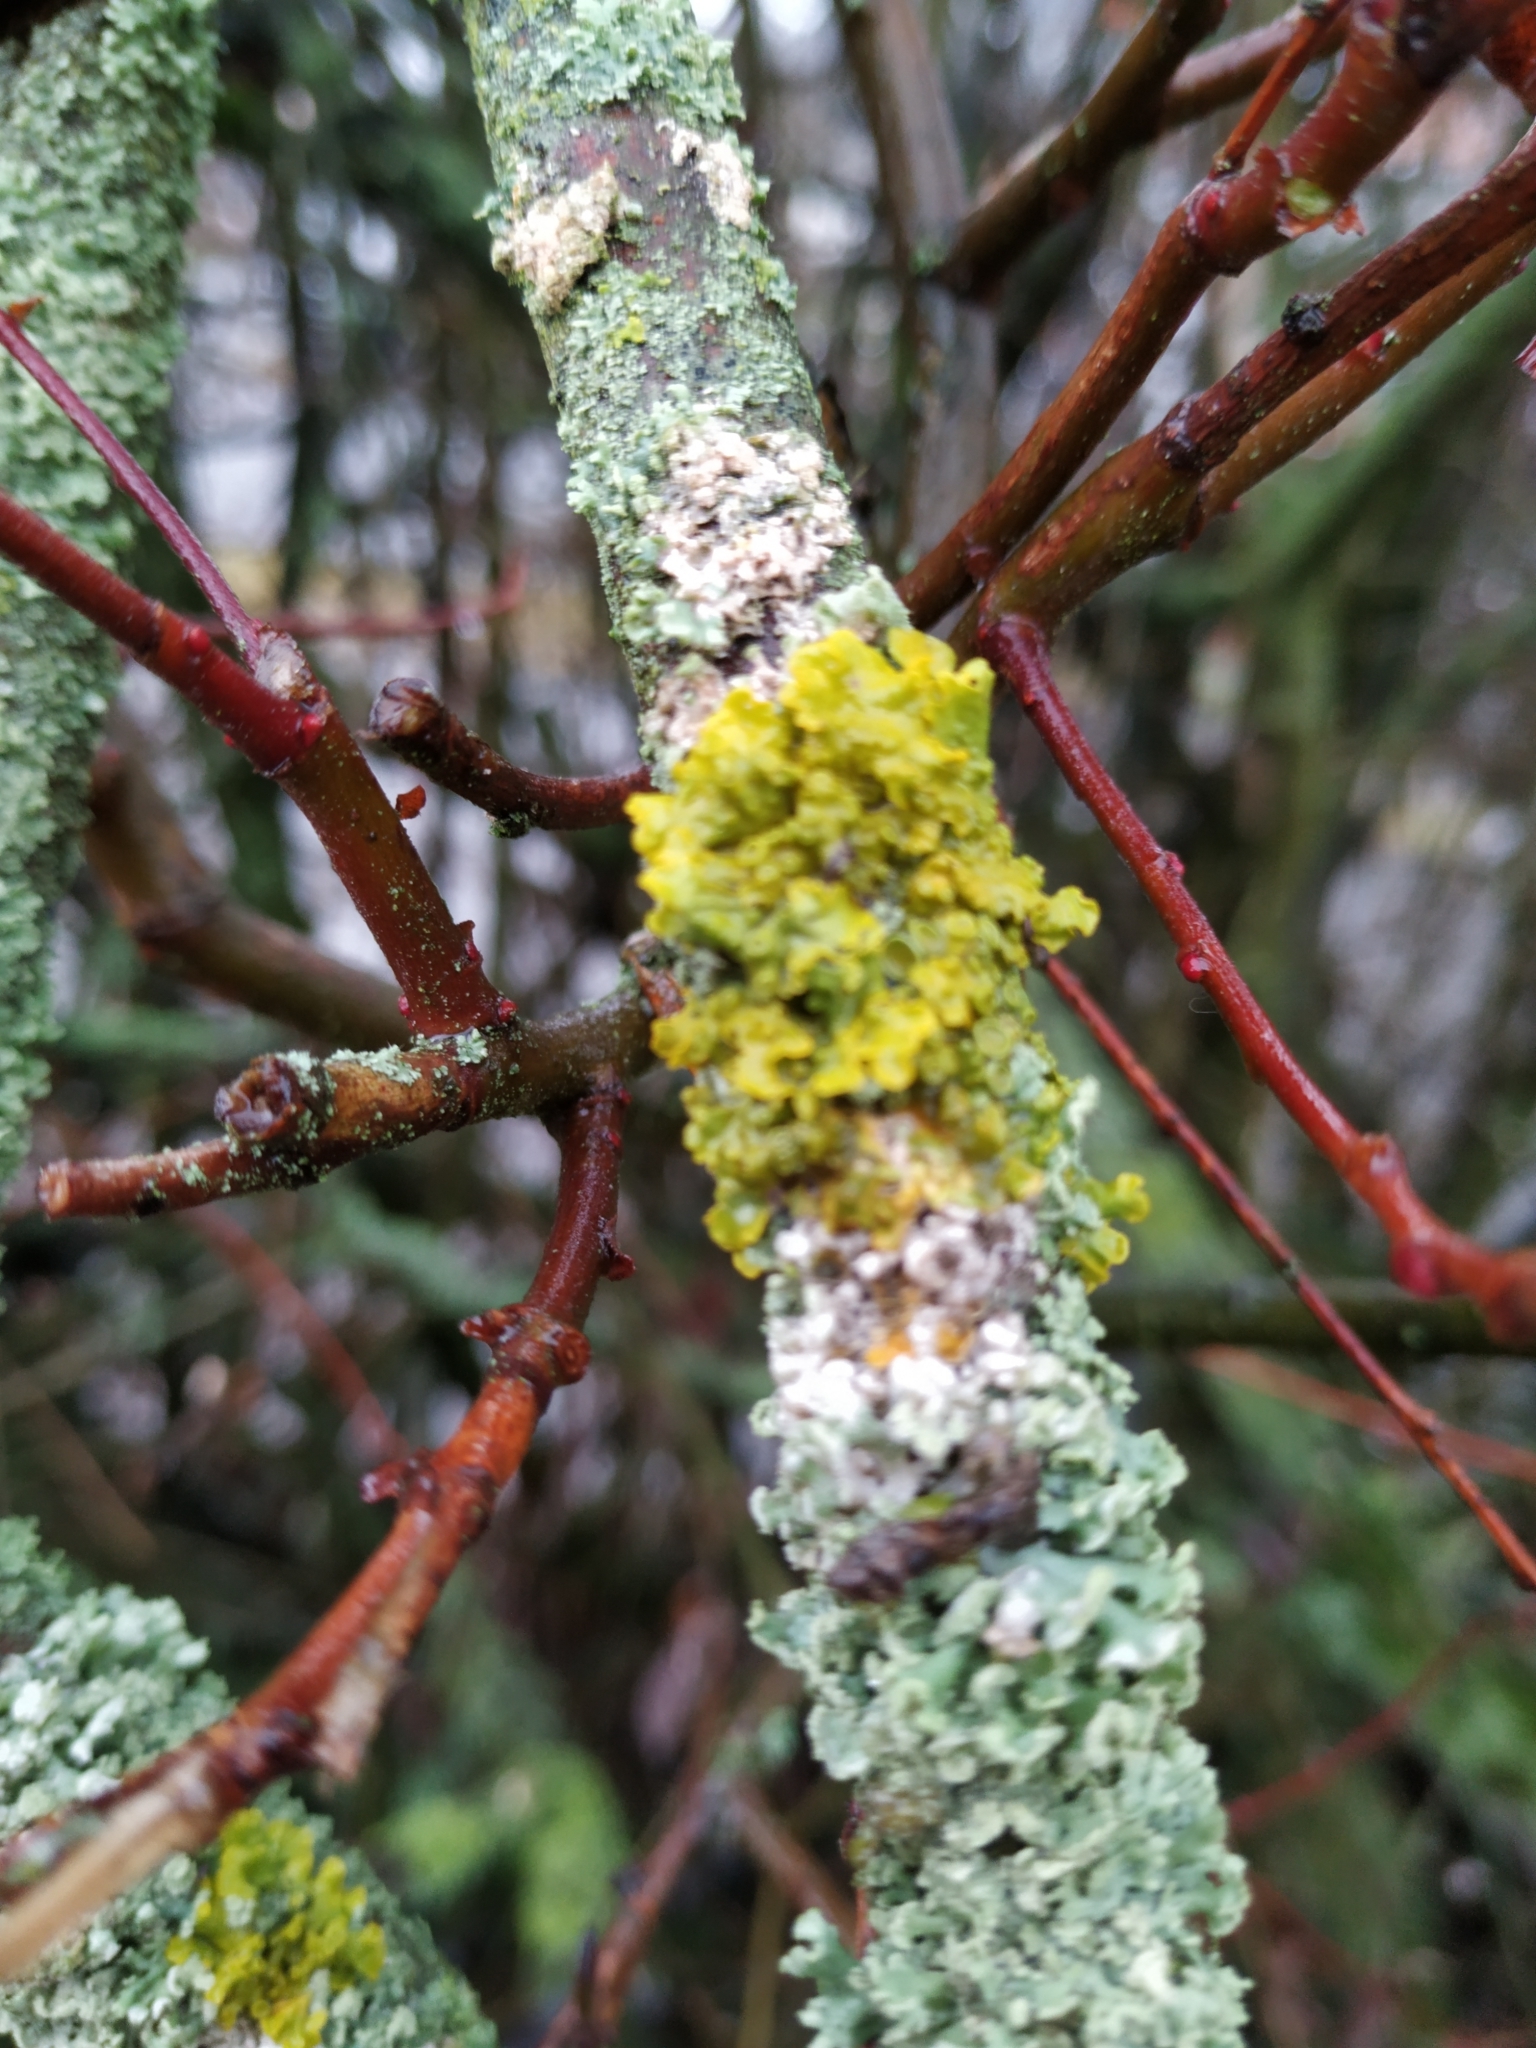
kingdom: Fungi
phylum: Ascomycota
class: Lecanoromycetes
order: Teloschistales
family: Teloschistaceae
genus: Xanthoria
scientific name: Xanthoria parietina
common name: Common orange lichen
